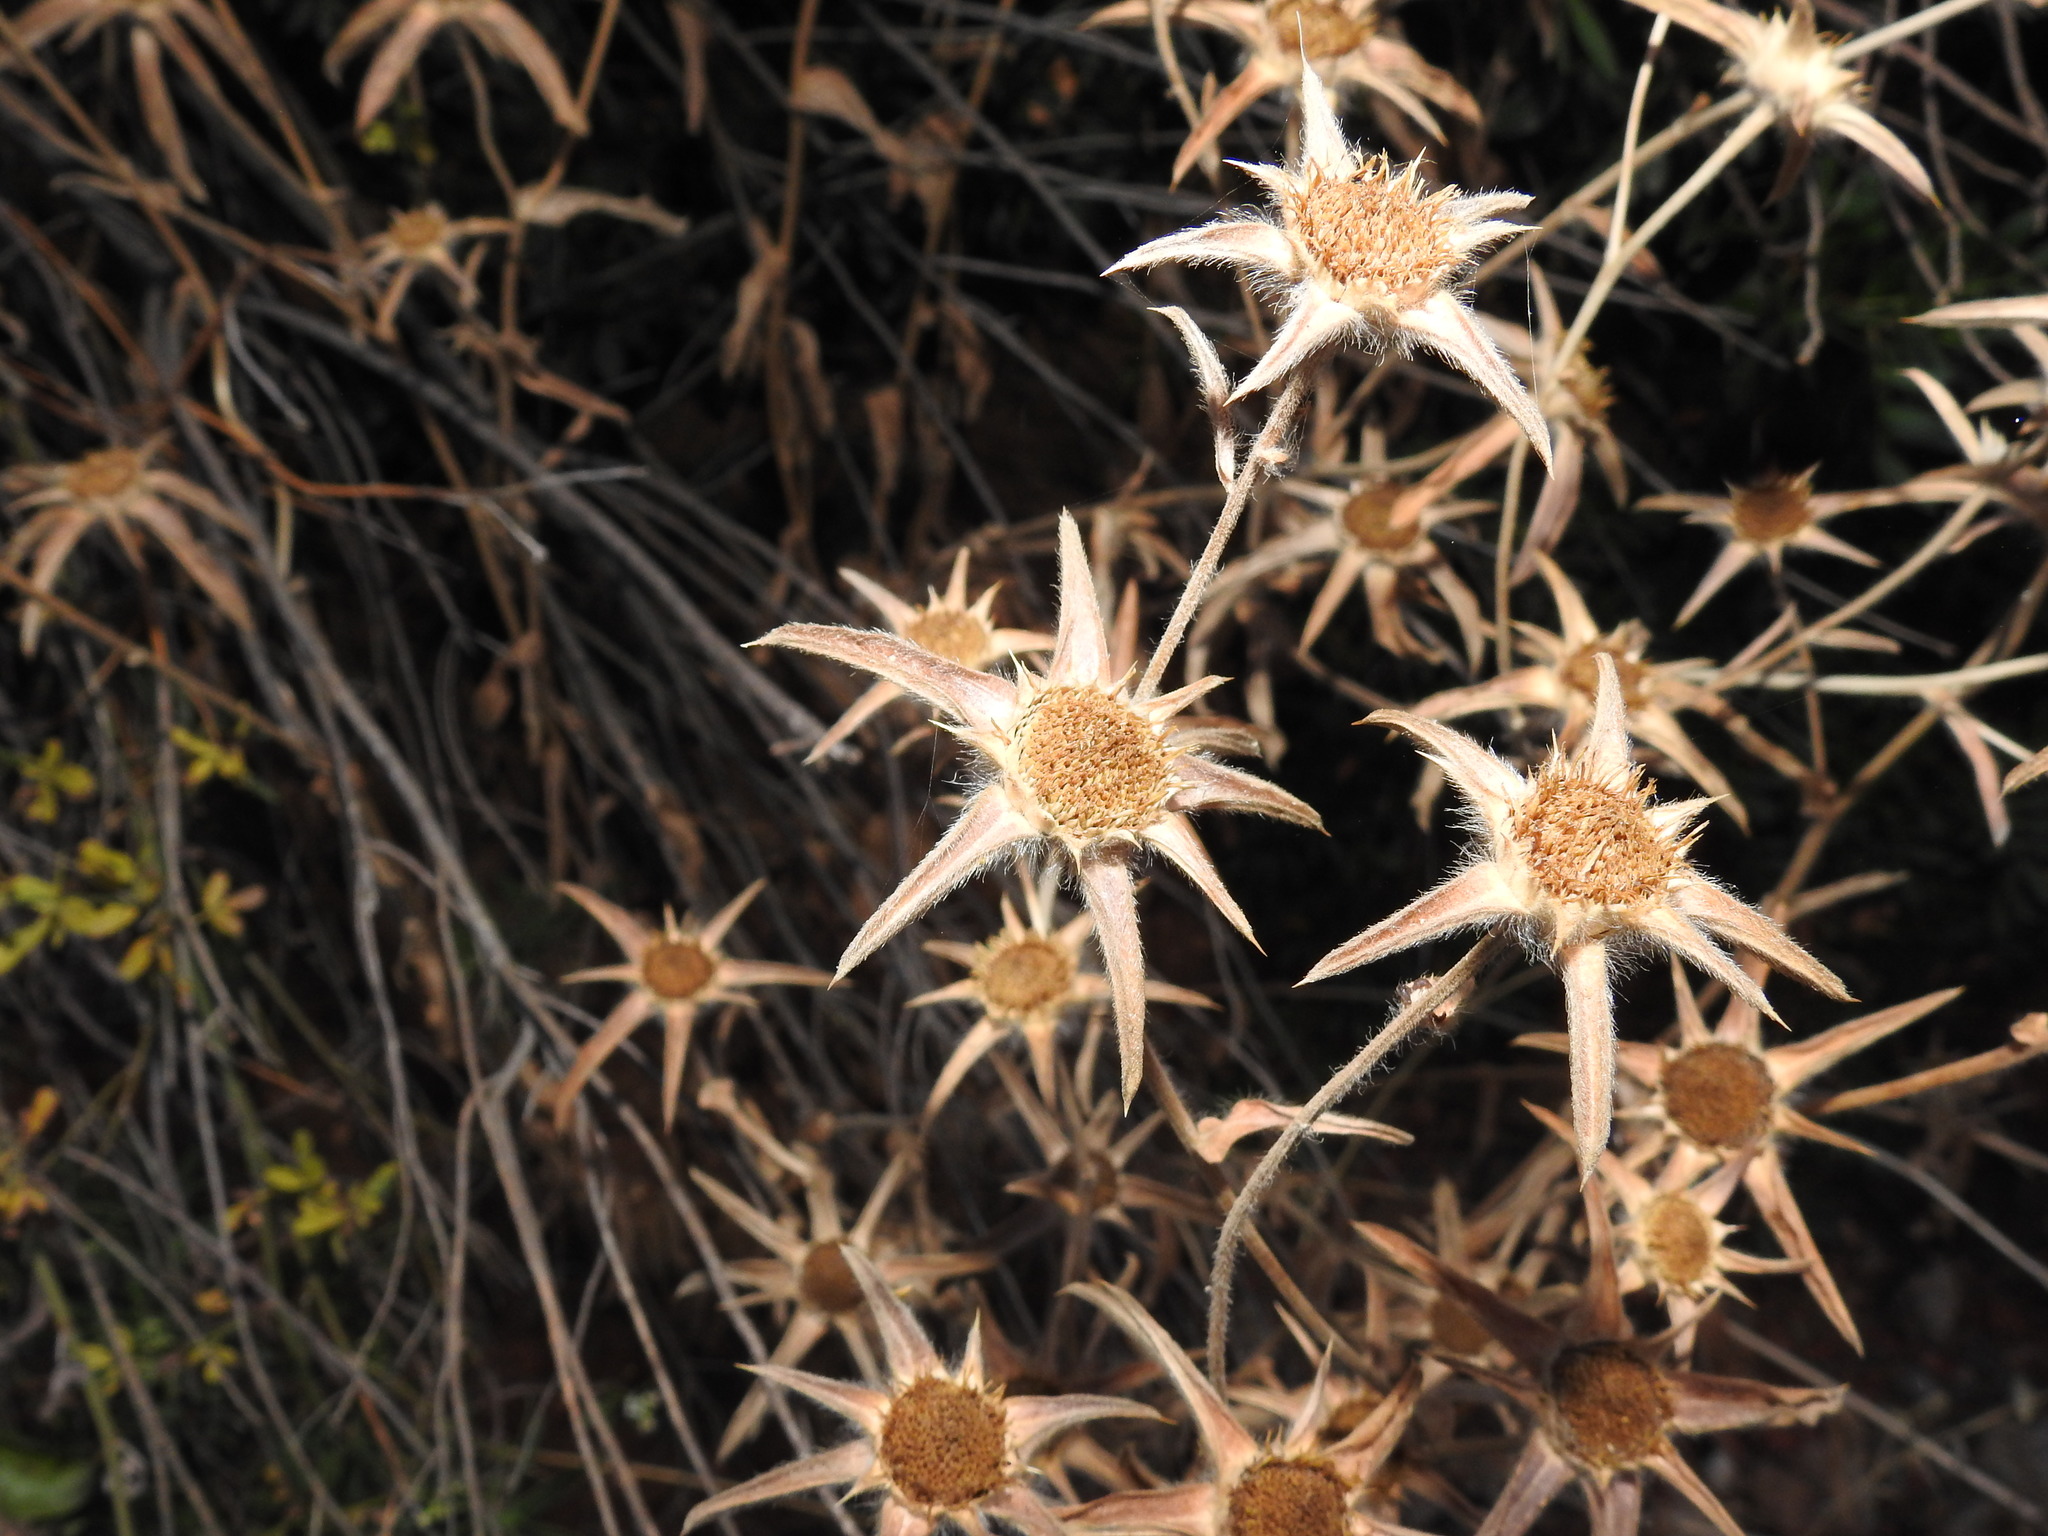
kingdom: Plantae
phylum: Tracheophyta
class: Magnoliopsida
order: Asterales
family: Asteraceae
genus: Pallenis
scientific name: Pallenis spinosa
